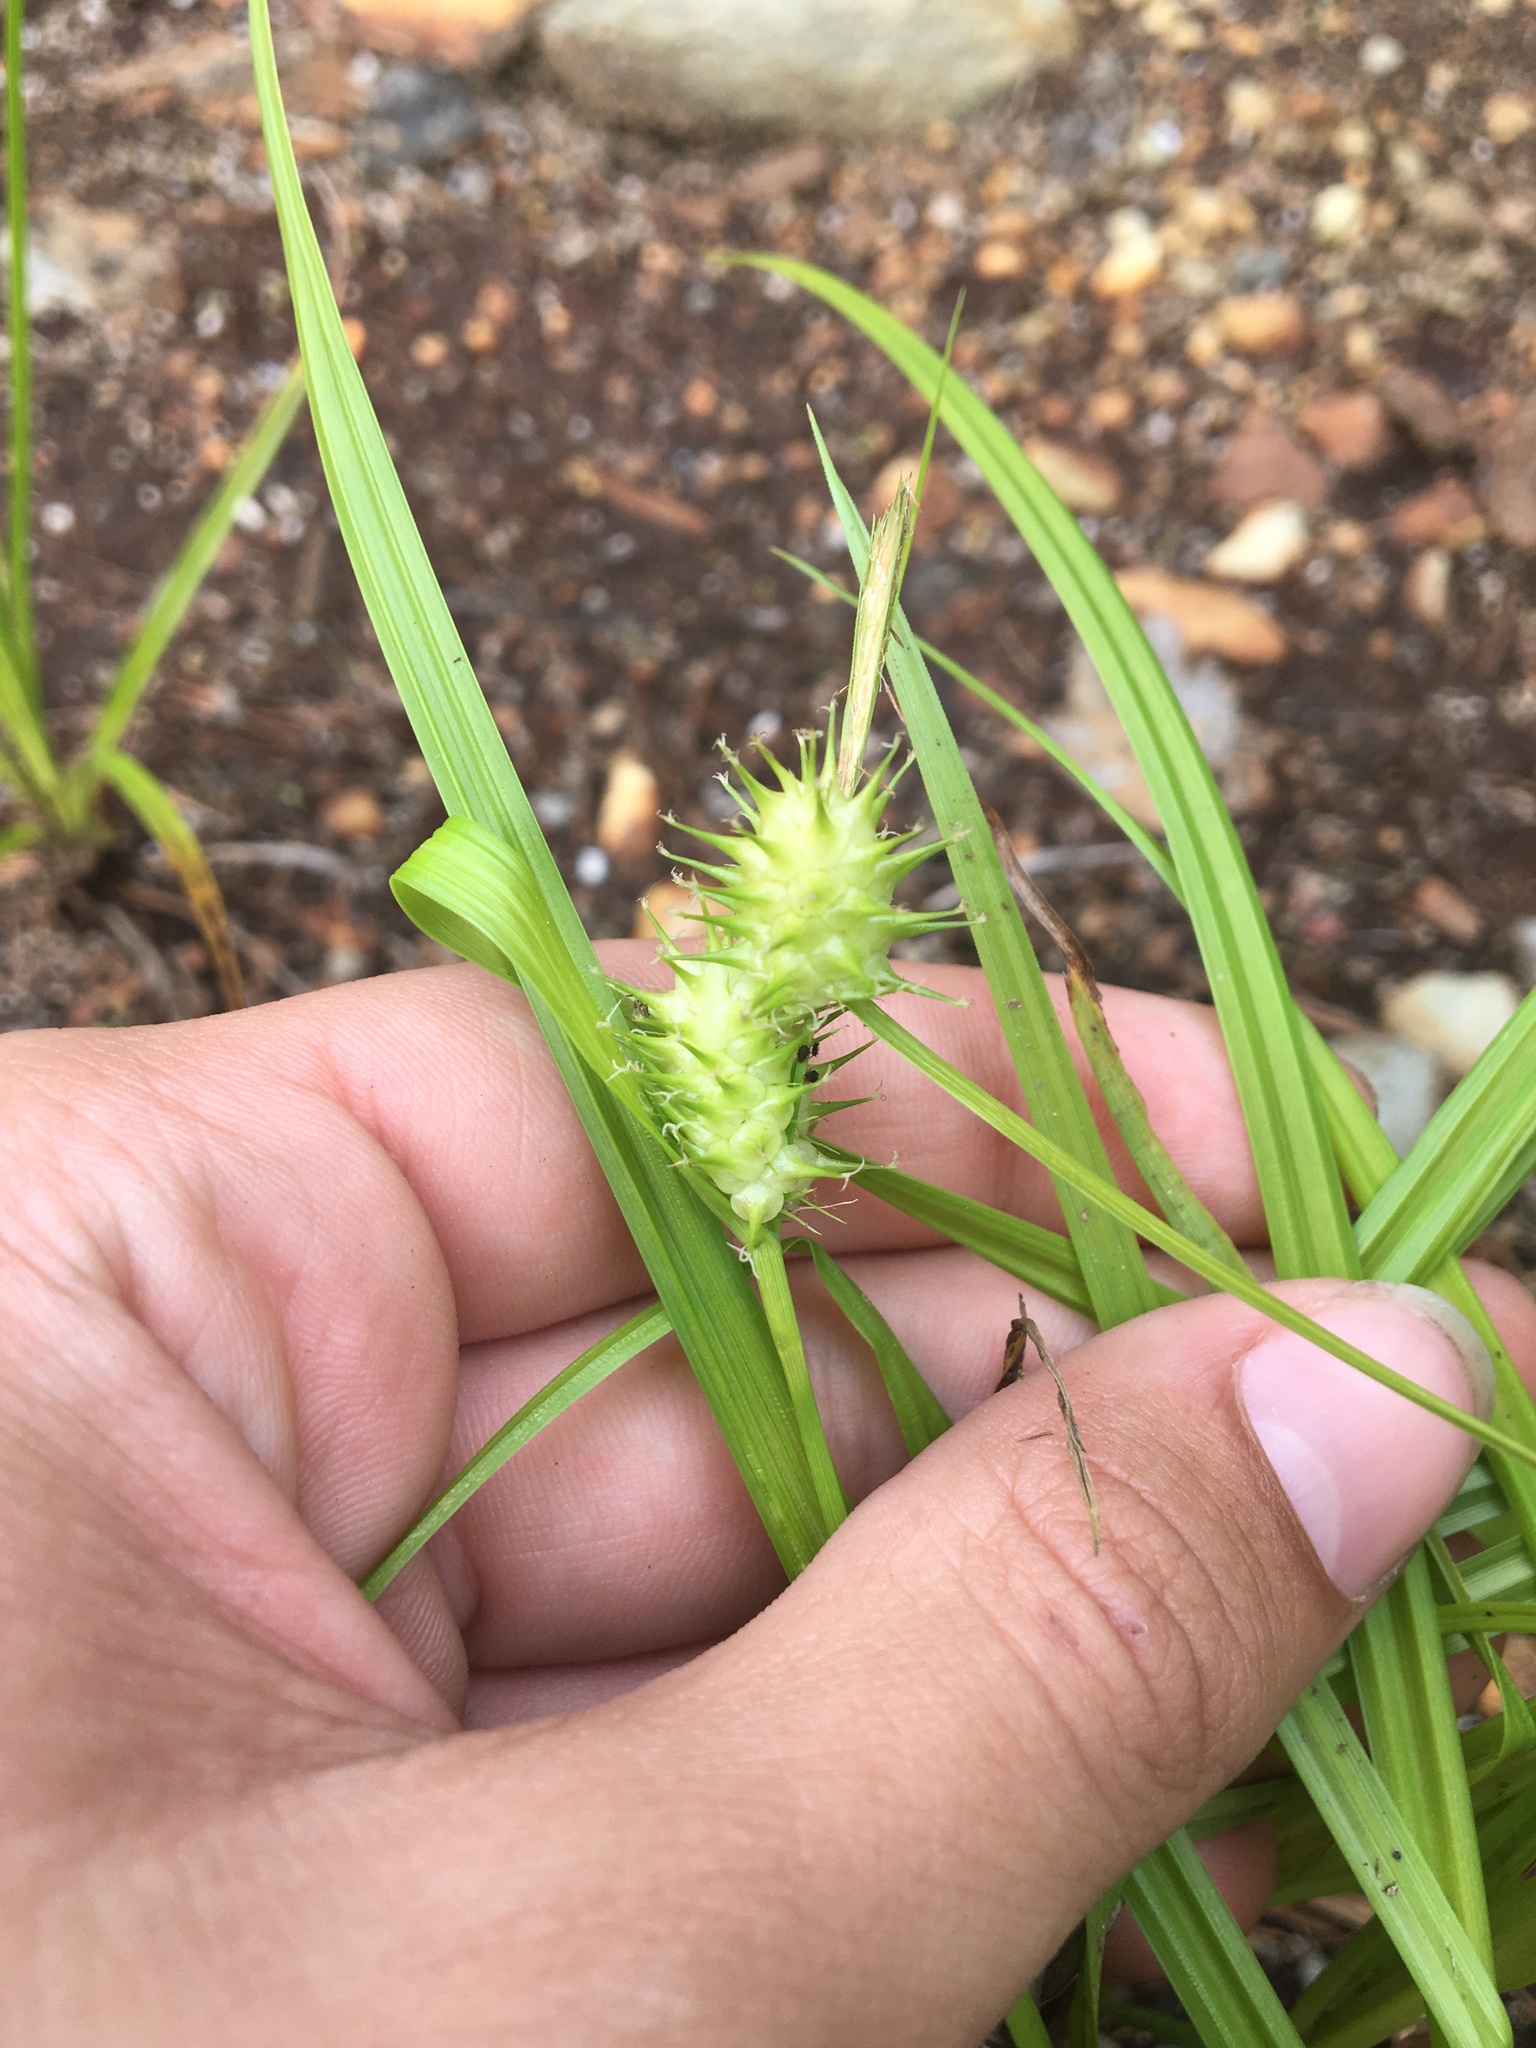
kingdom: Plantae
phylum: Tracheophyta
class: Liliopsida
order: Poales
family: Cyperaceae
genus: Carex
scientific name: Carex lurida
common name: Sallow sedge
